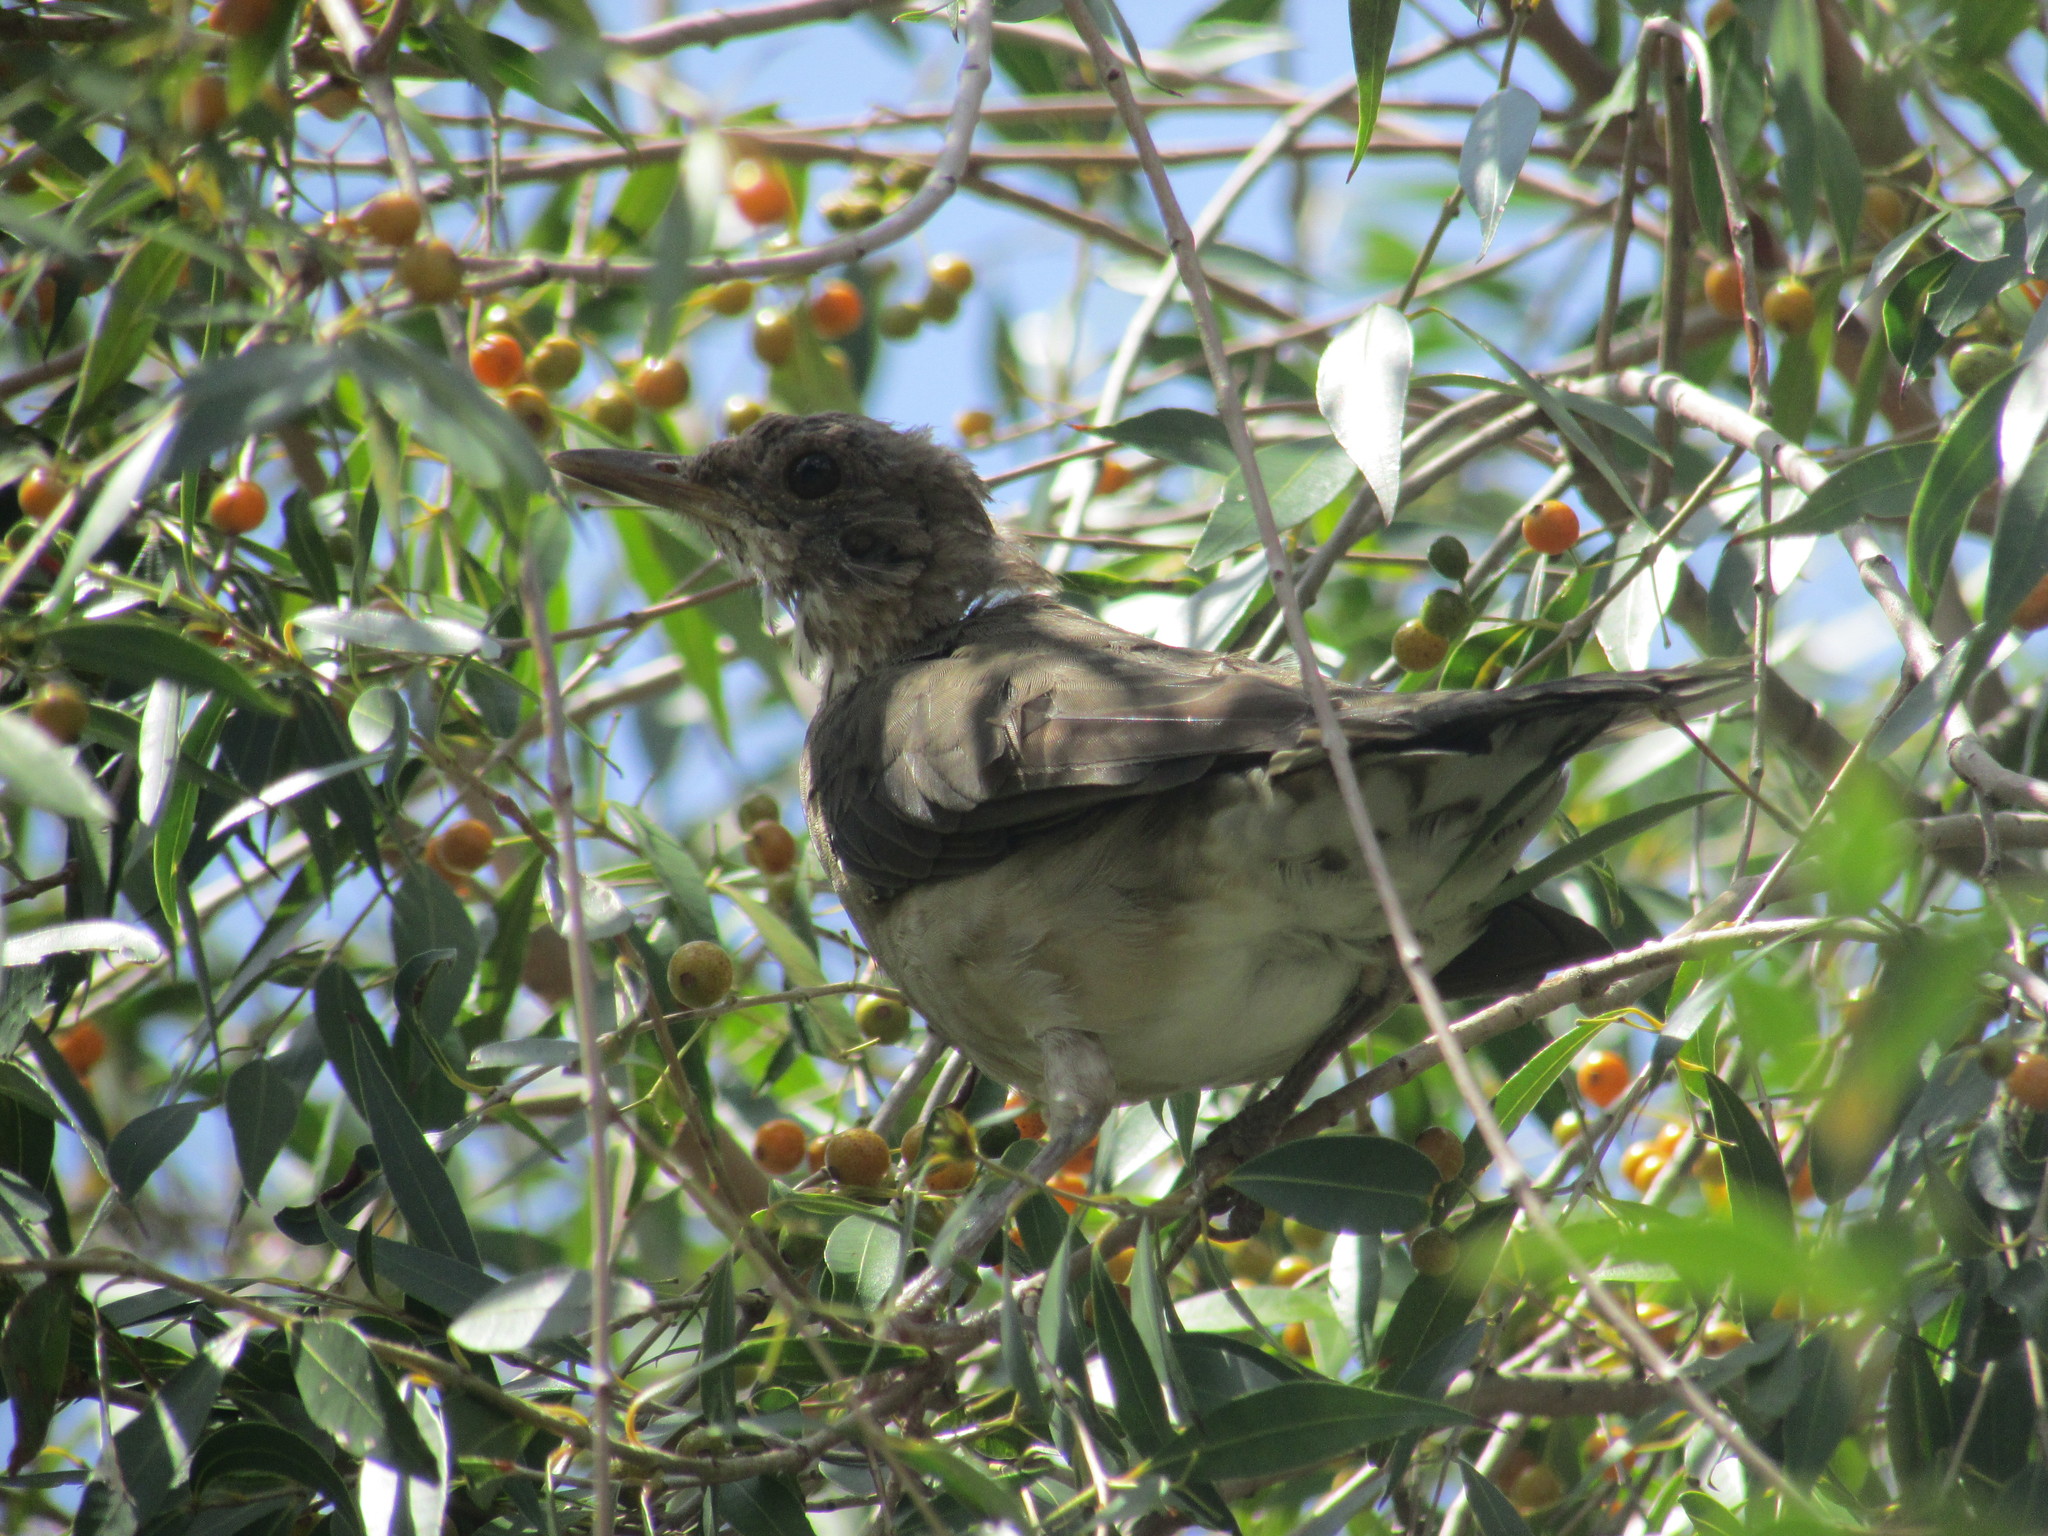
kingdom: Animalia
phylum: Chordata
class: Aves
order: Passeriformes
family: Turdidae
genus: Turdus
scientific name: Turdus amaurochalinus
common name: Creamy-bellied thrush
